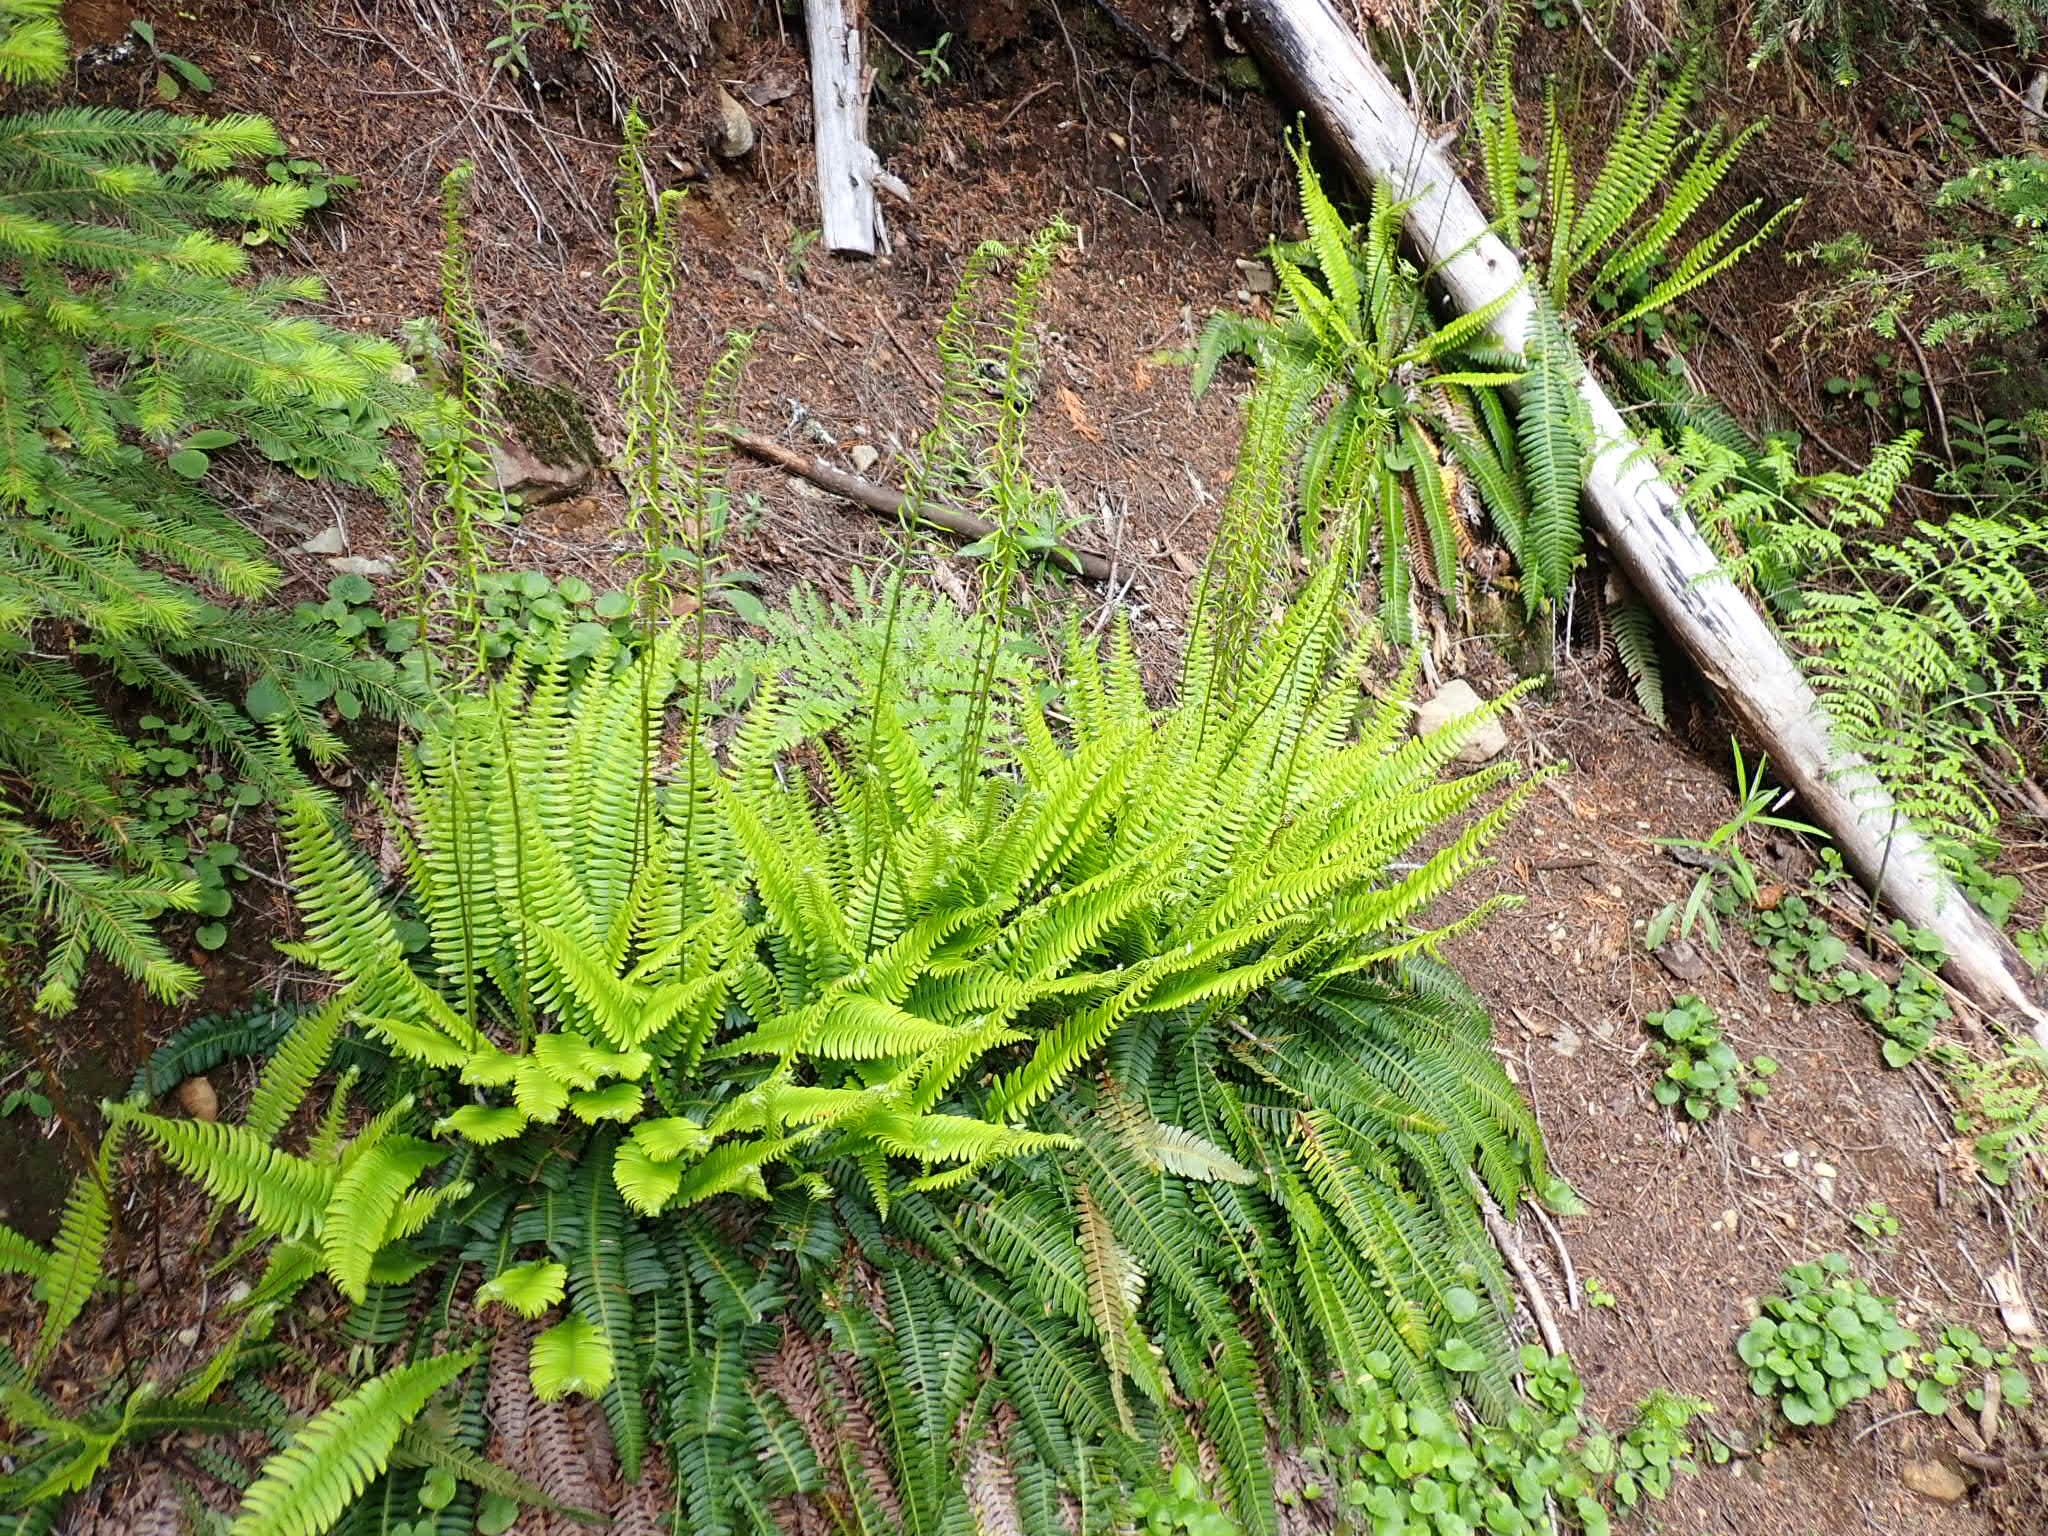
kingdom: Plantae
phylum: Tracheophyta
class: Polypodiopsida
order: Polypodiales
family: Blechnaceae
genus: Struthiopteris
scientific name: Struthiopteris spicant
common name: Deer fern
